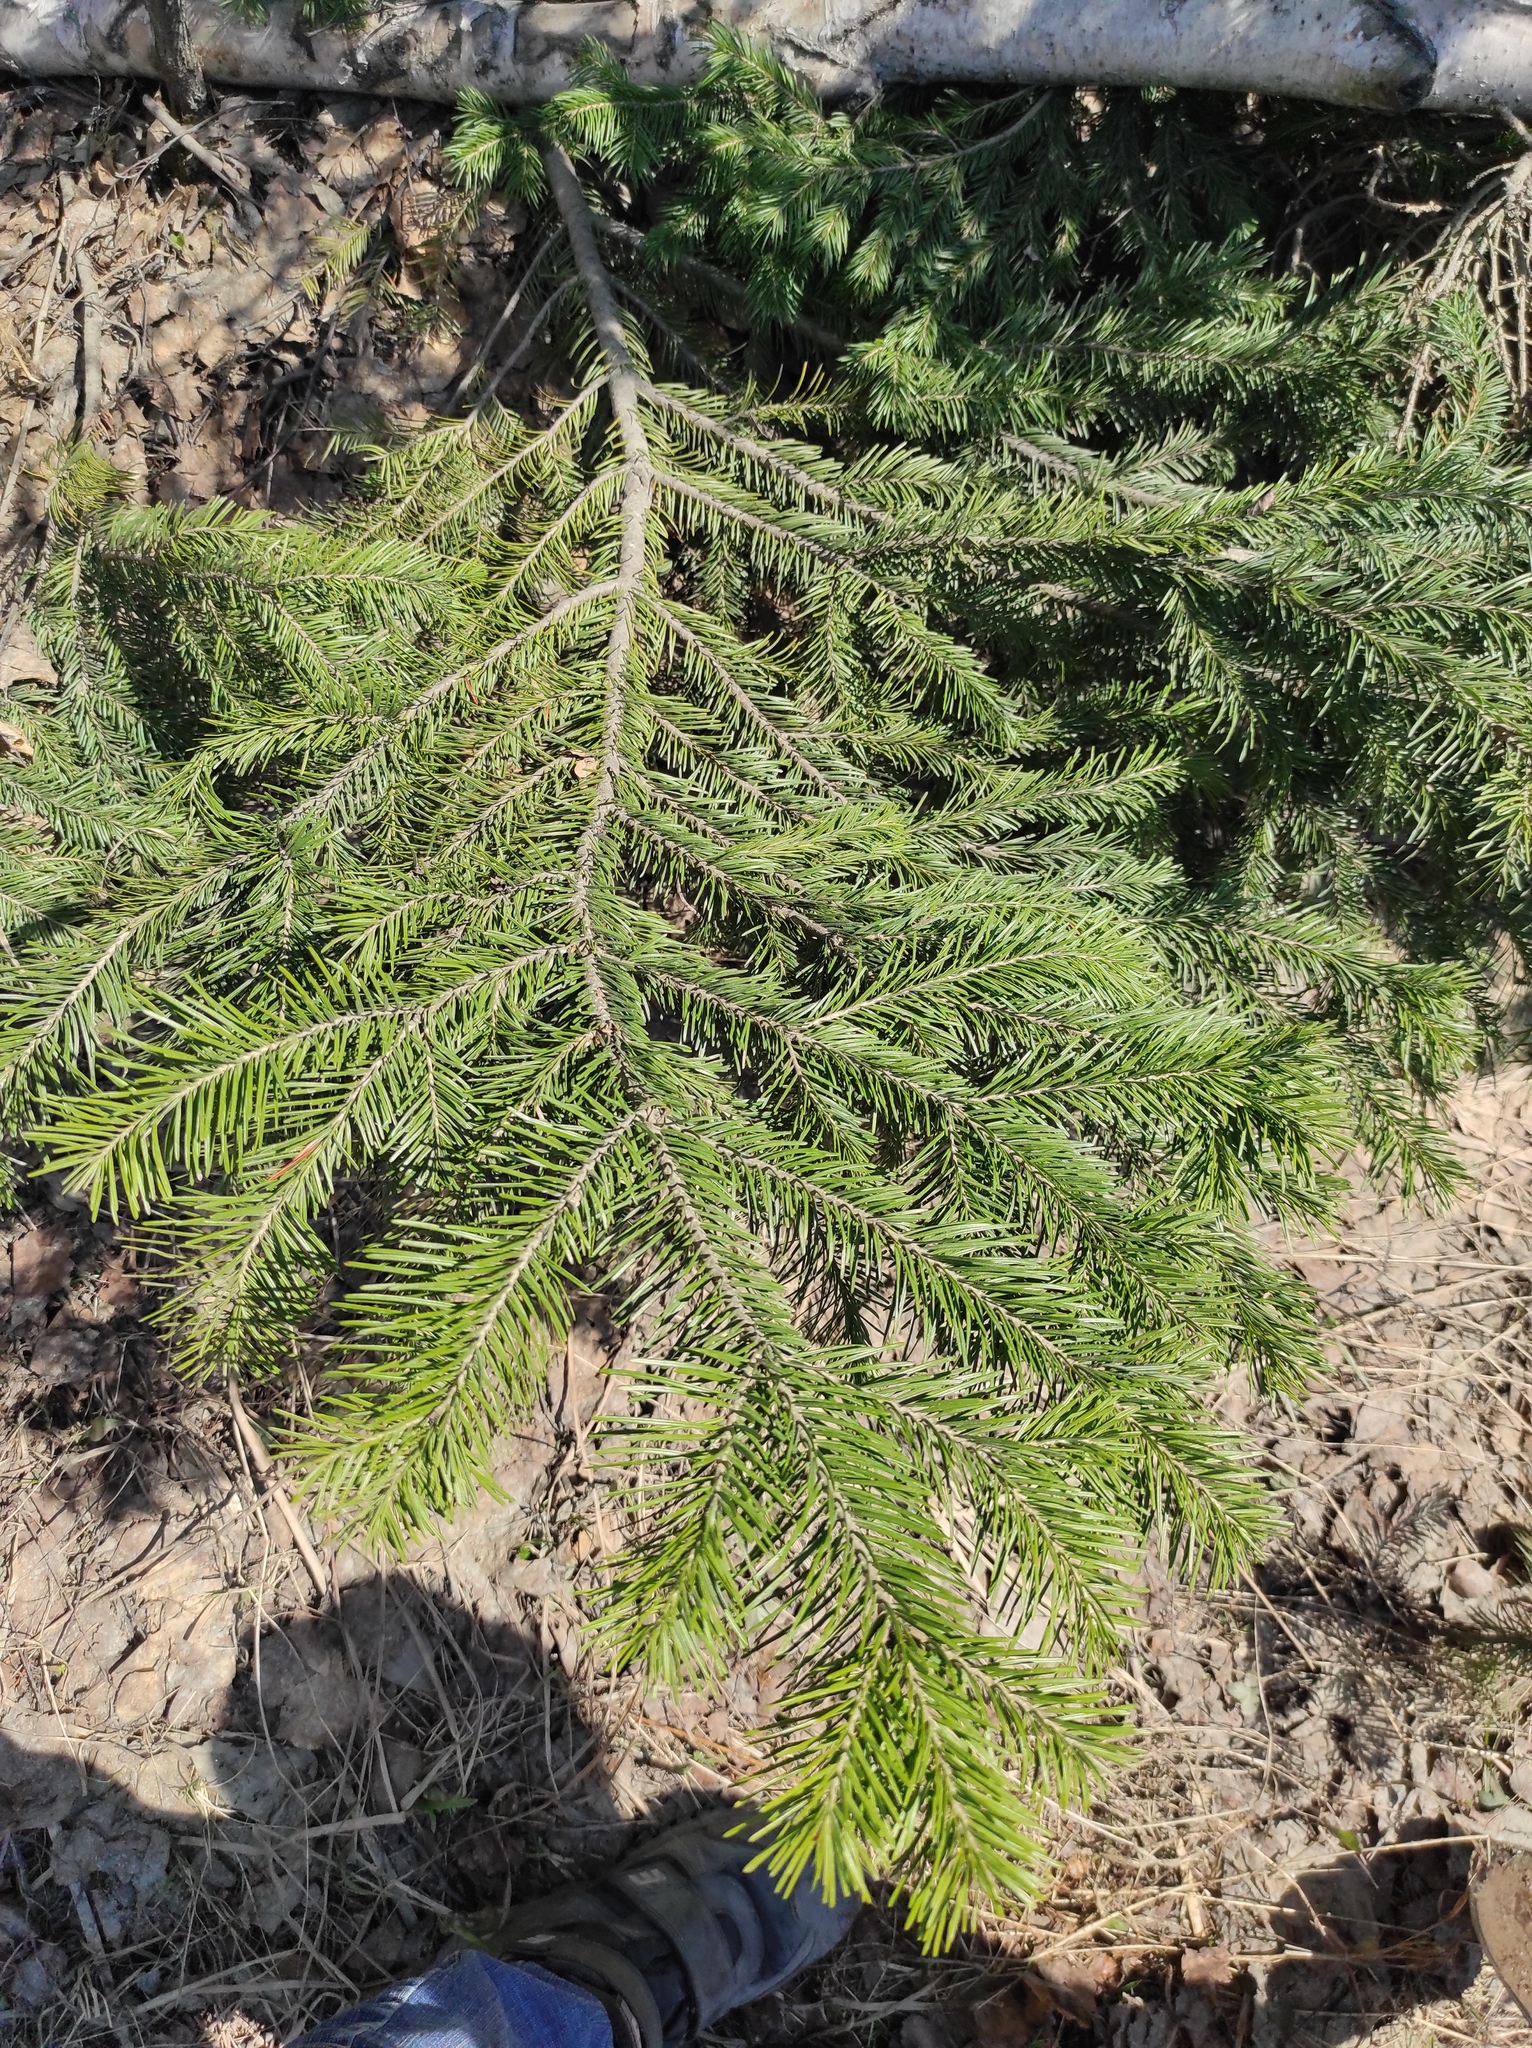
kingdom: Plantae
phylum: Tracheophyta
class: Pinopsida
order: Pinales
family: Pinaceae
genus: Abies
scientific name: Abies sibirica
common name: Siberian fir
